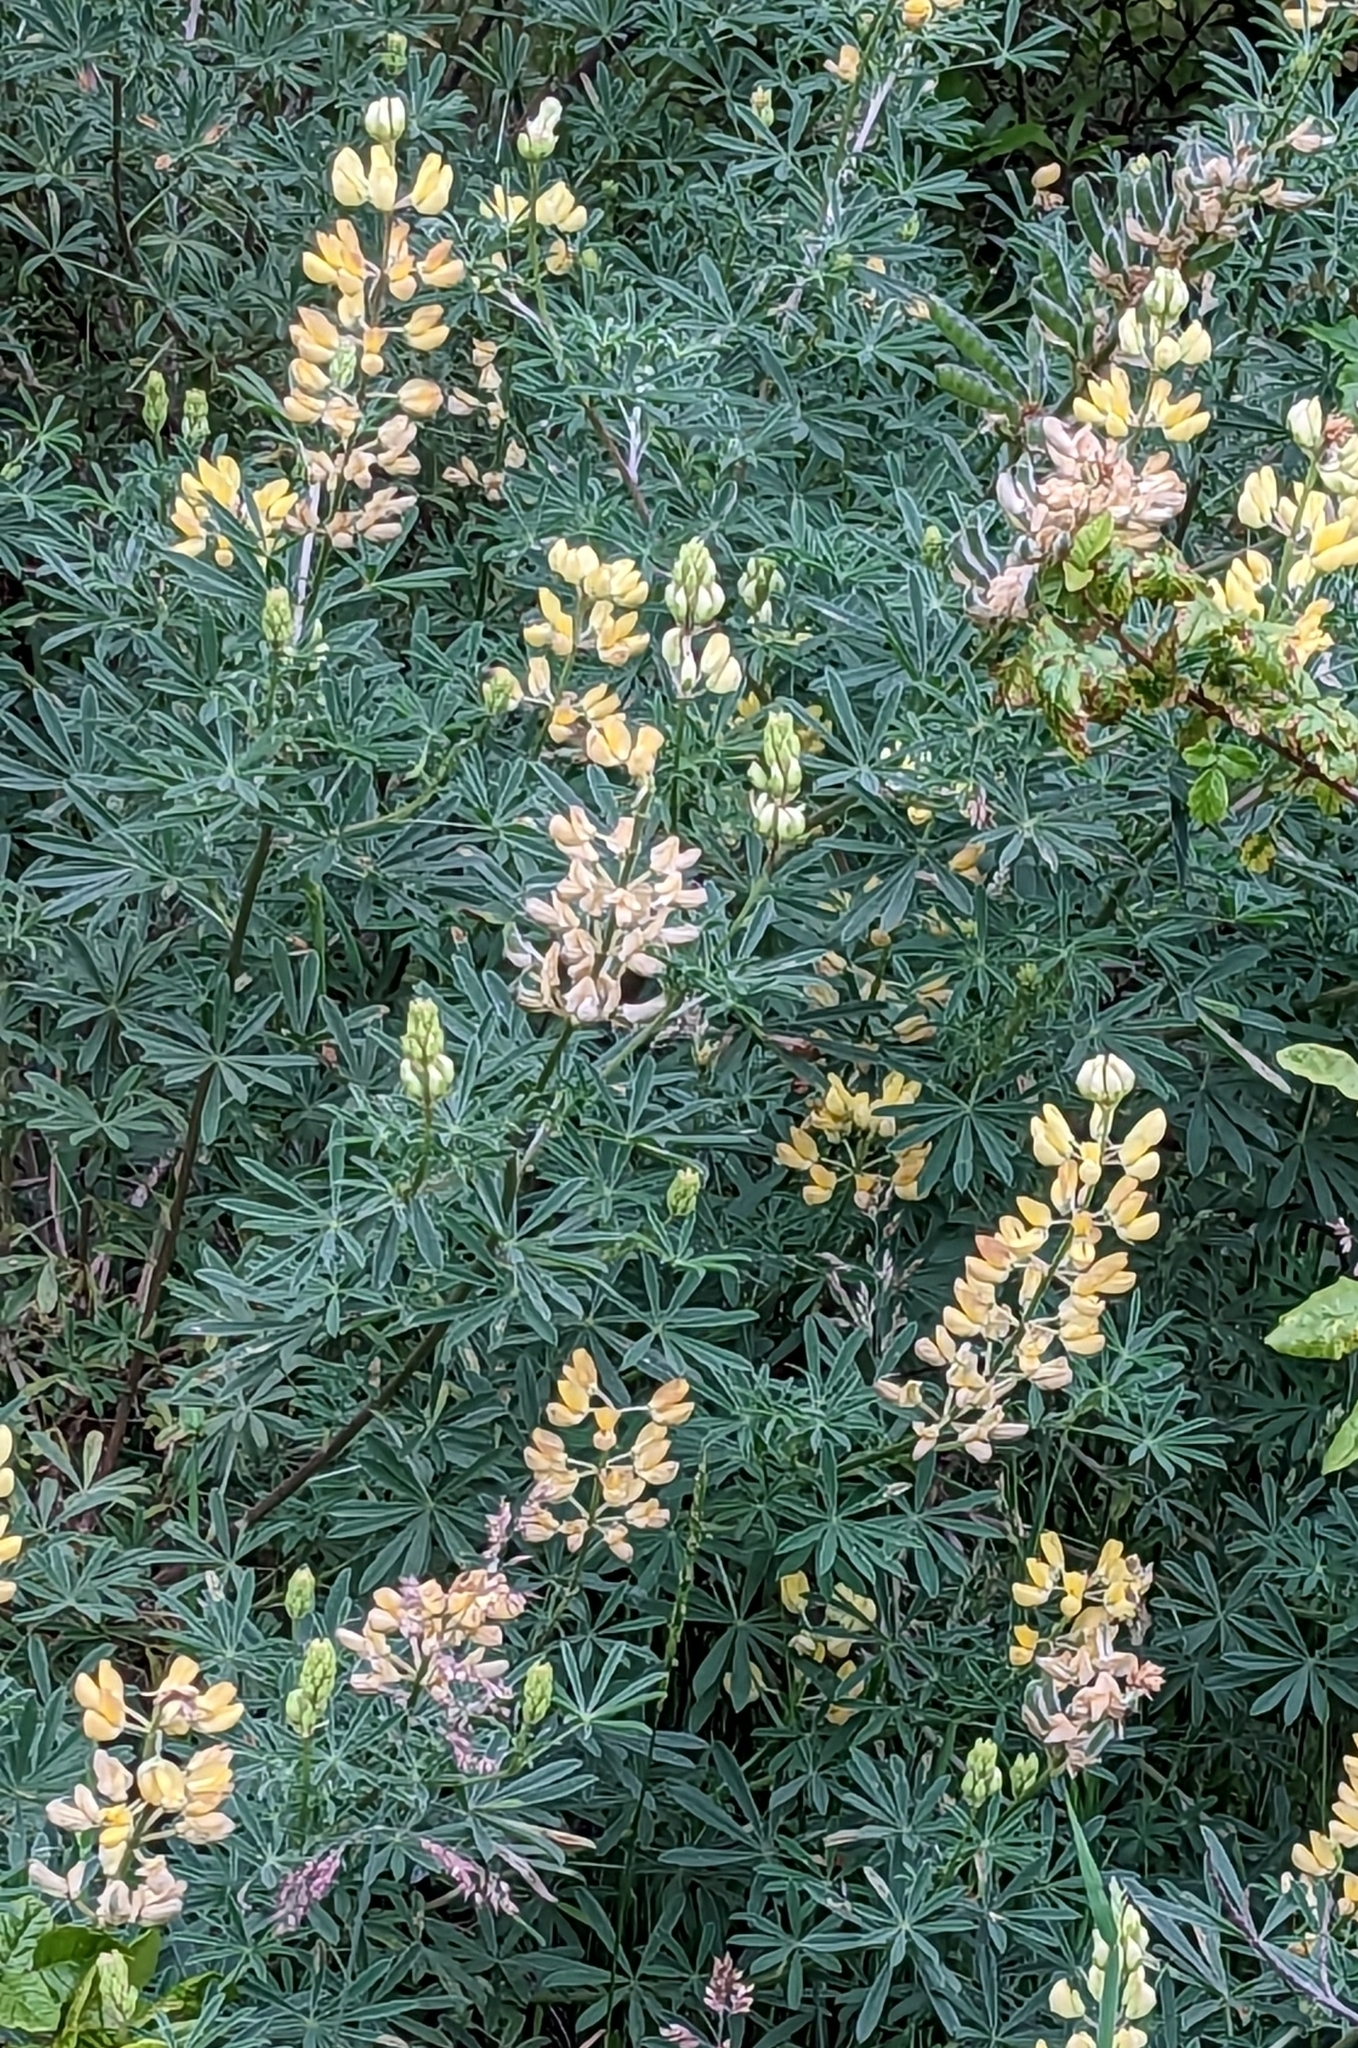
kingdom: Plantae
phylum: Tracheophyta
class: Magnoliopsida
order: Fabales
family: Fabaceae
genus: Lupinus
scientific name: Lupinus arboreus
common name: Yellow bush lupine
